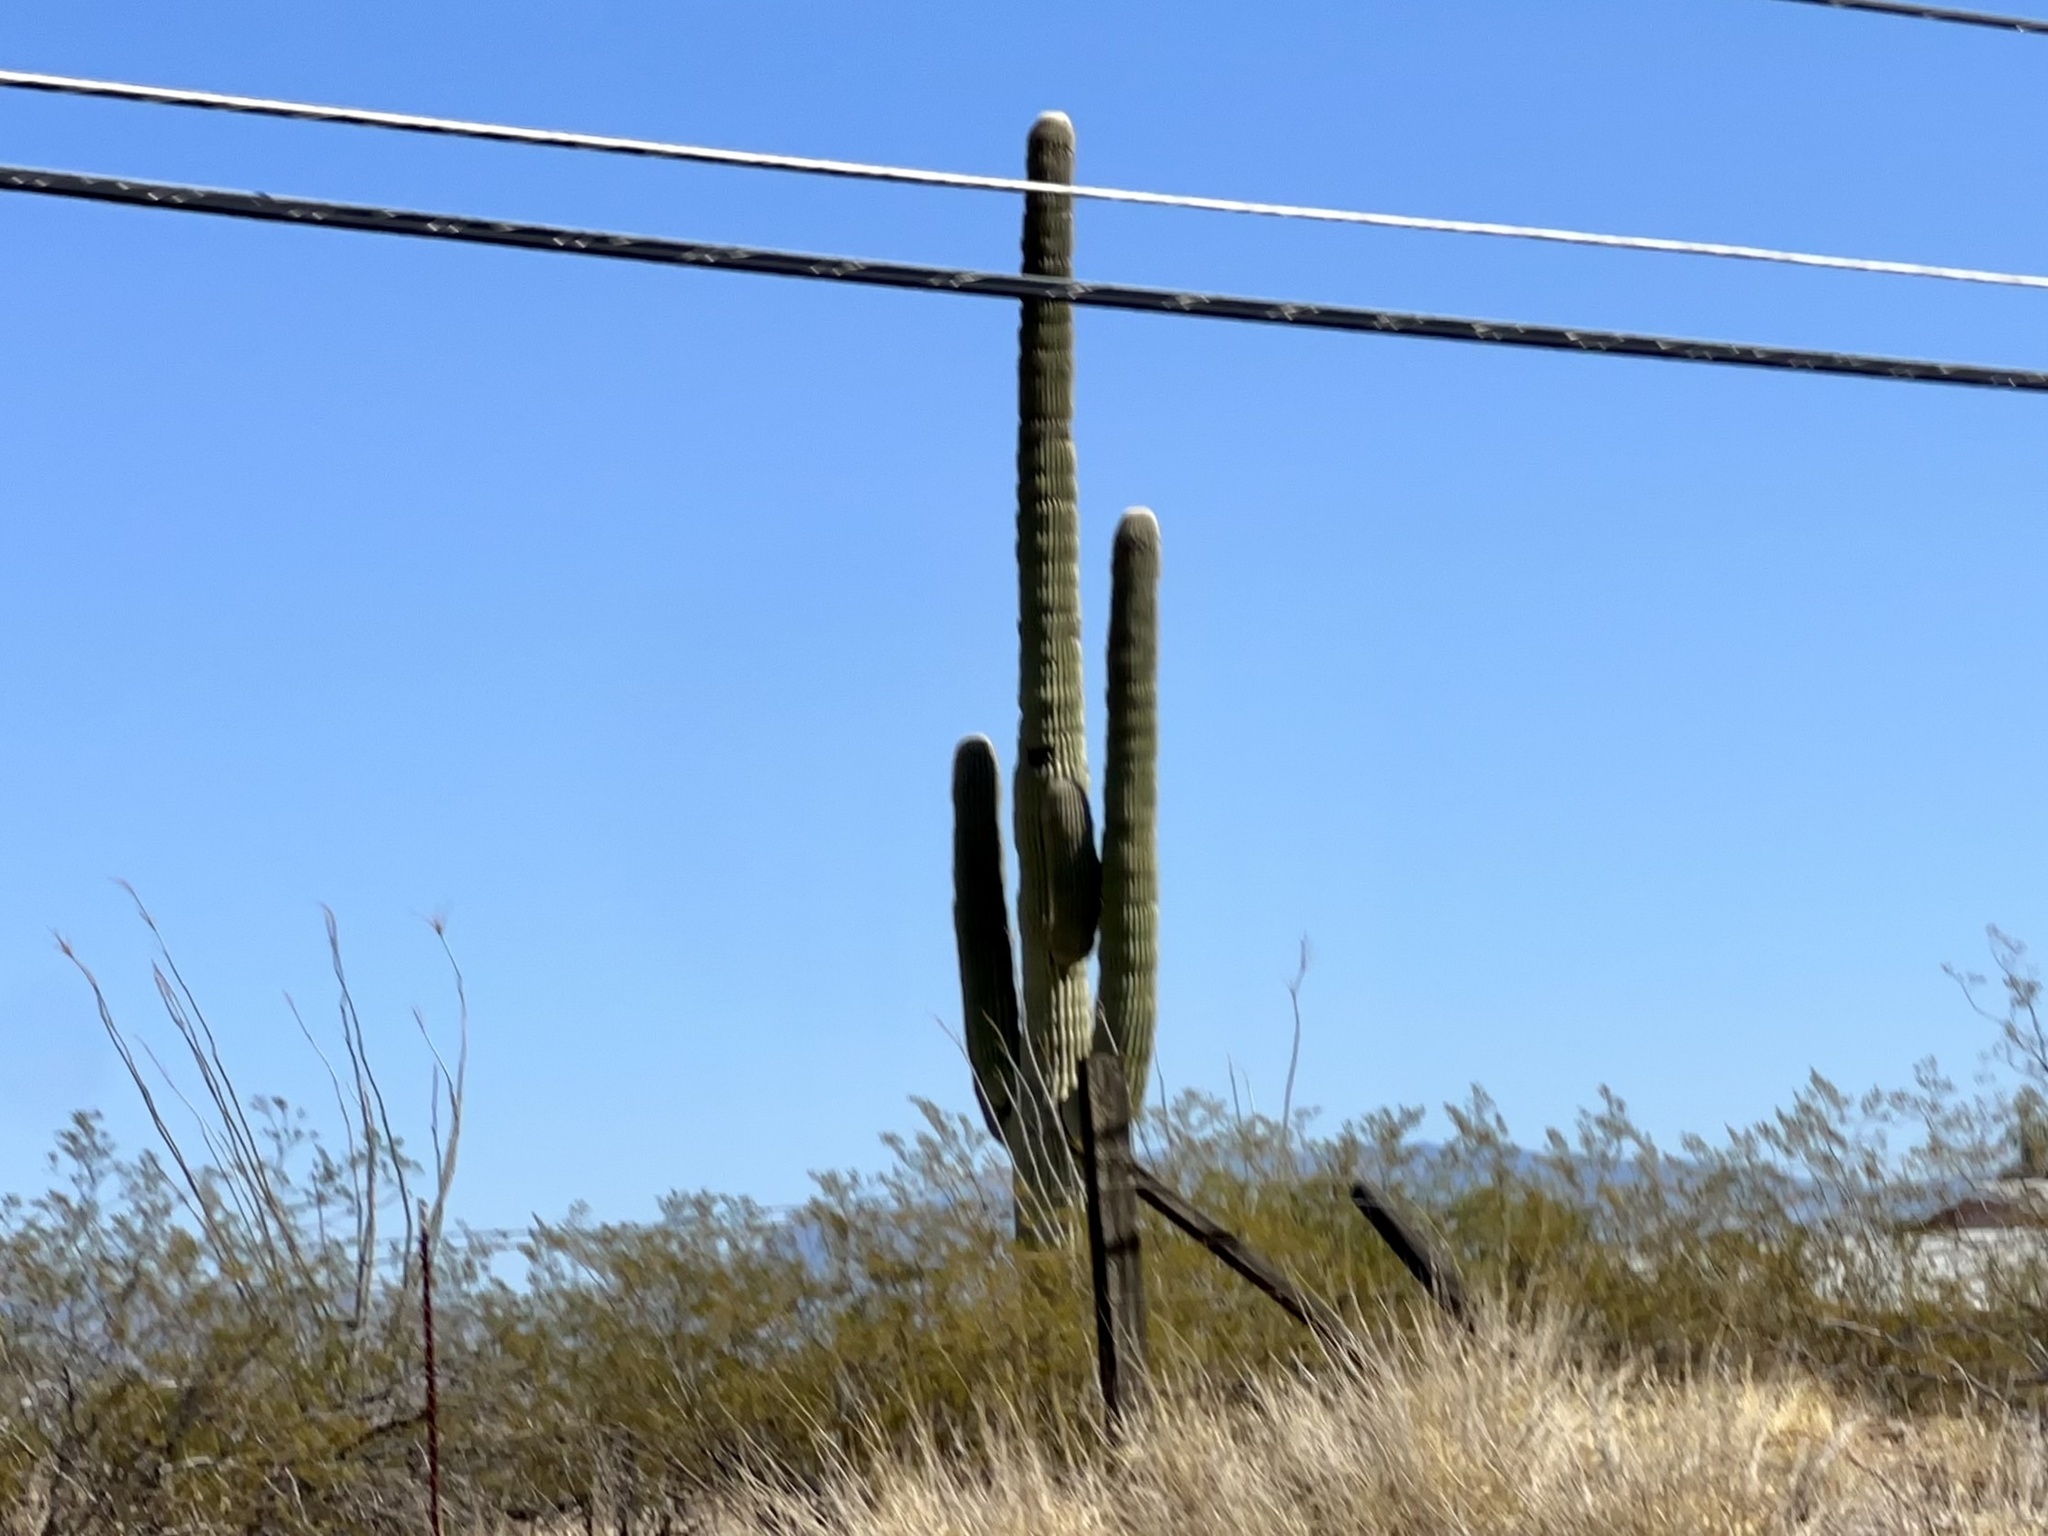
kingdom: Plantae
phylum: Tracheophyta
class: Magnoliopsida
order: Caryophyllales
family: Cactaceae
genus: Carnegiea
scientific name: Carnegiea gigantea
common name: Saguaro
